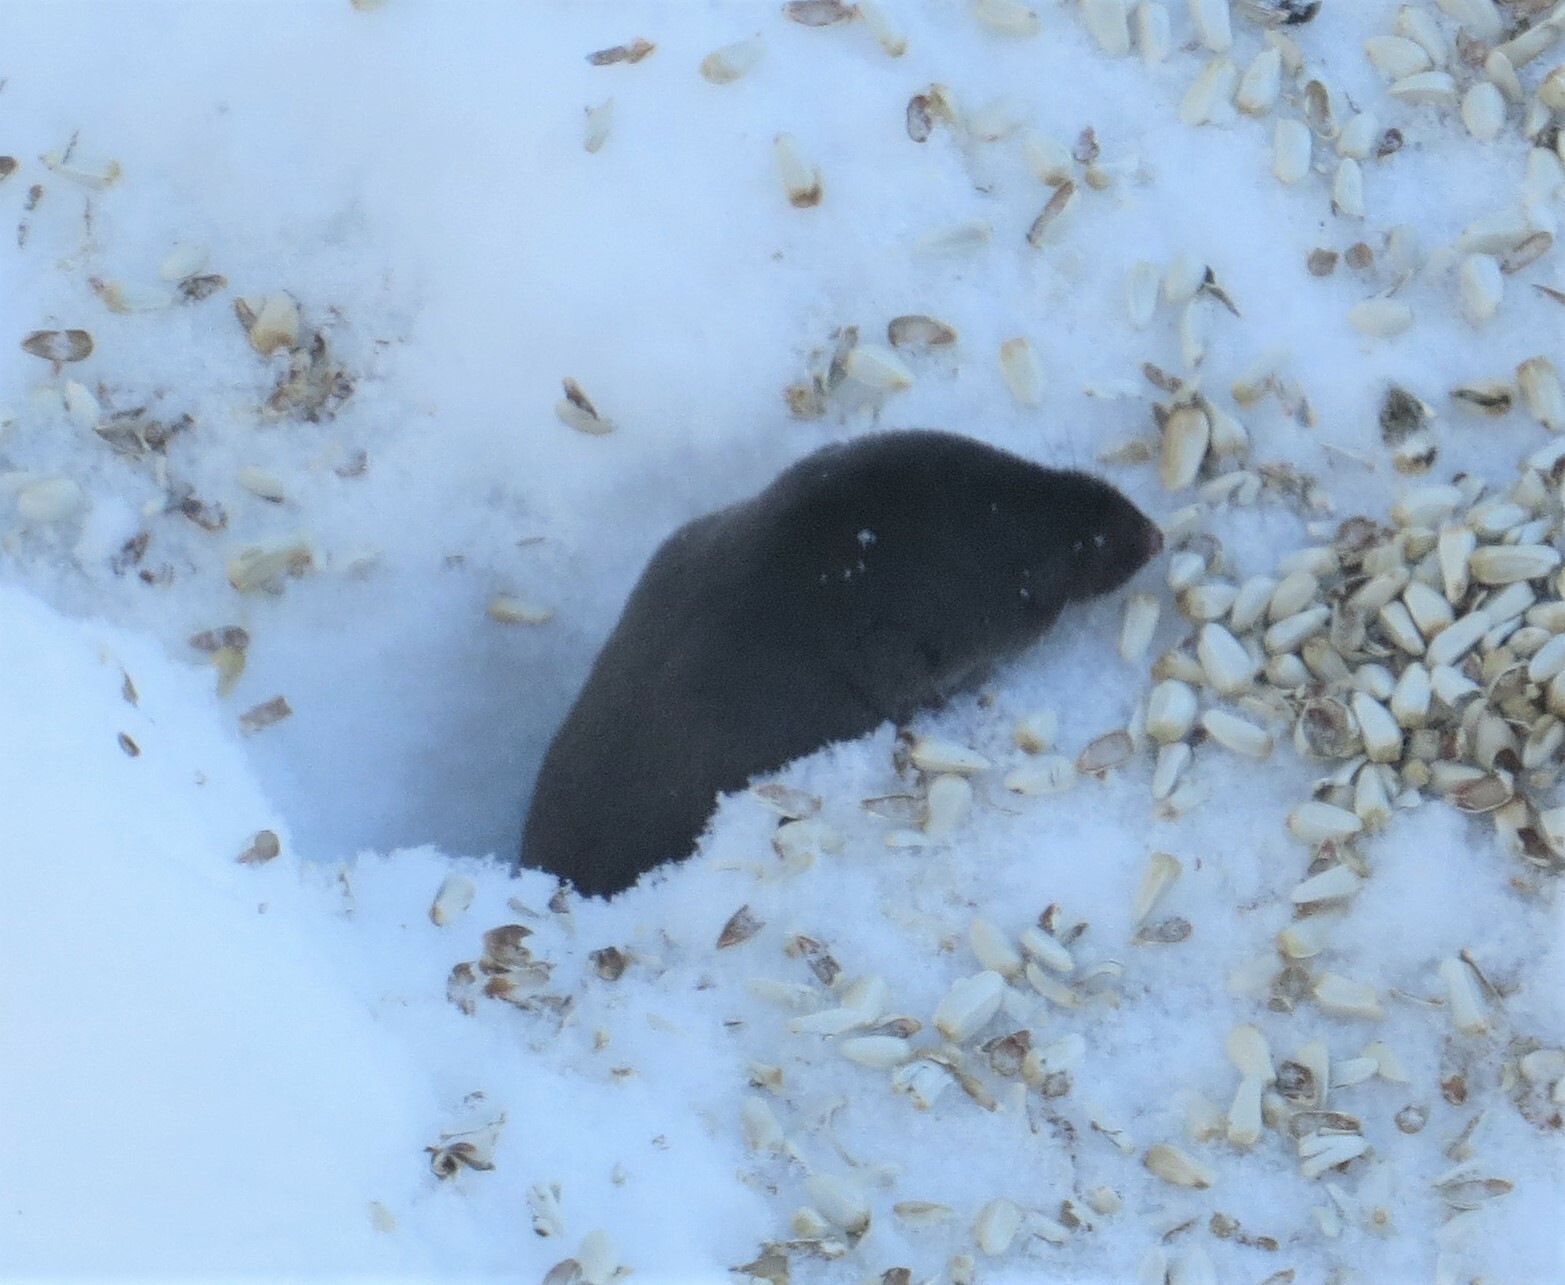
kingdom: Animalia
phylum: Chordata
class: Mammalia
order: Soricomorpha
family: Soricidae
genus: Blarina
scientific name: Blarina brevicauda
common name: Northern short-tailed shrew
